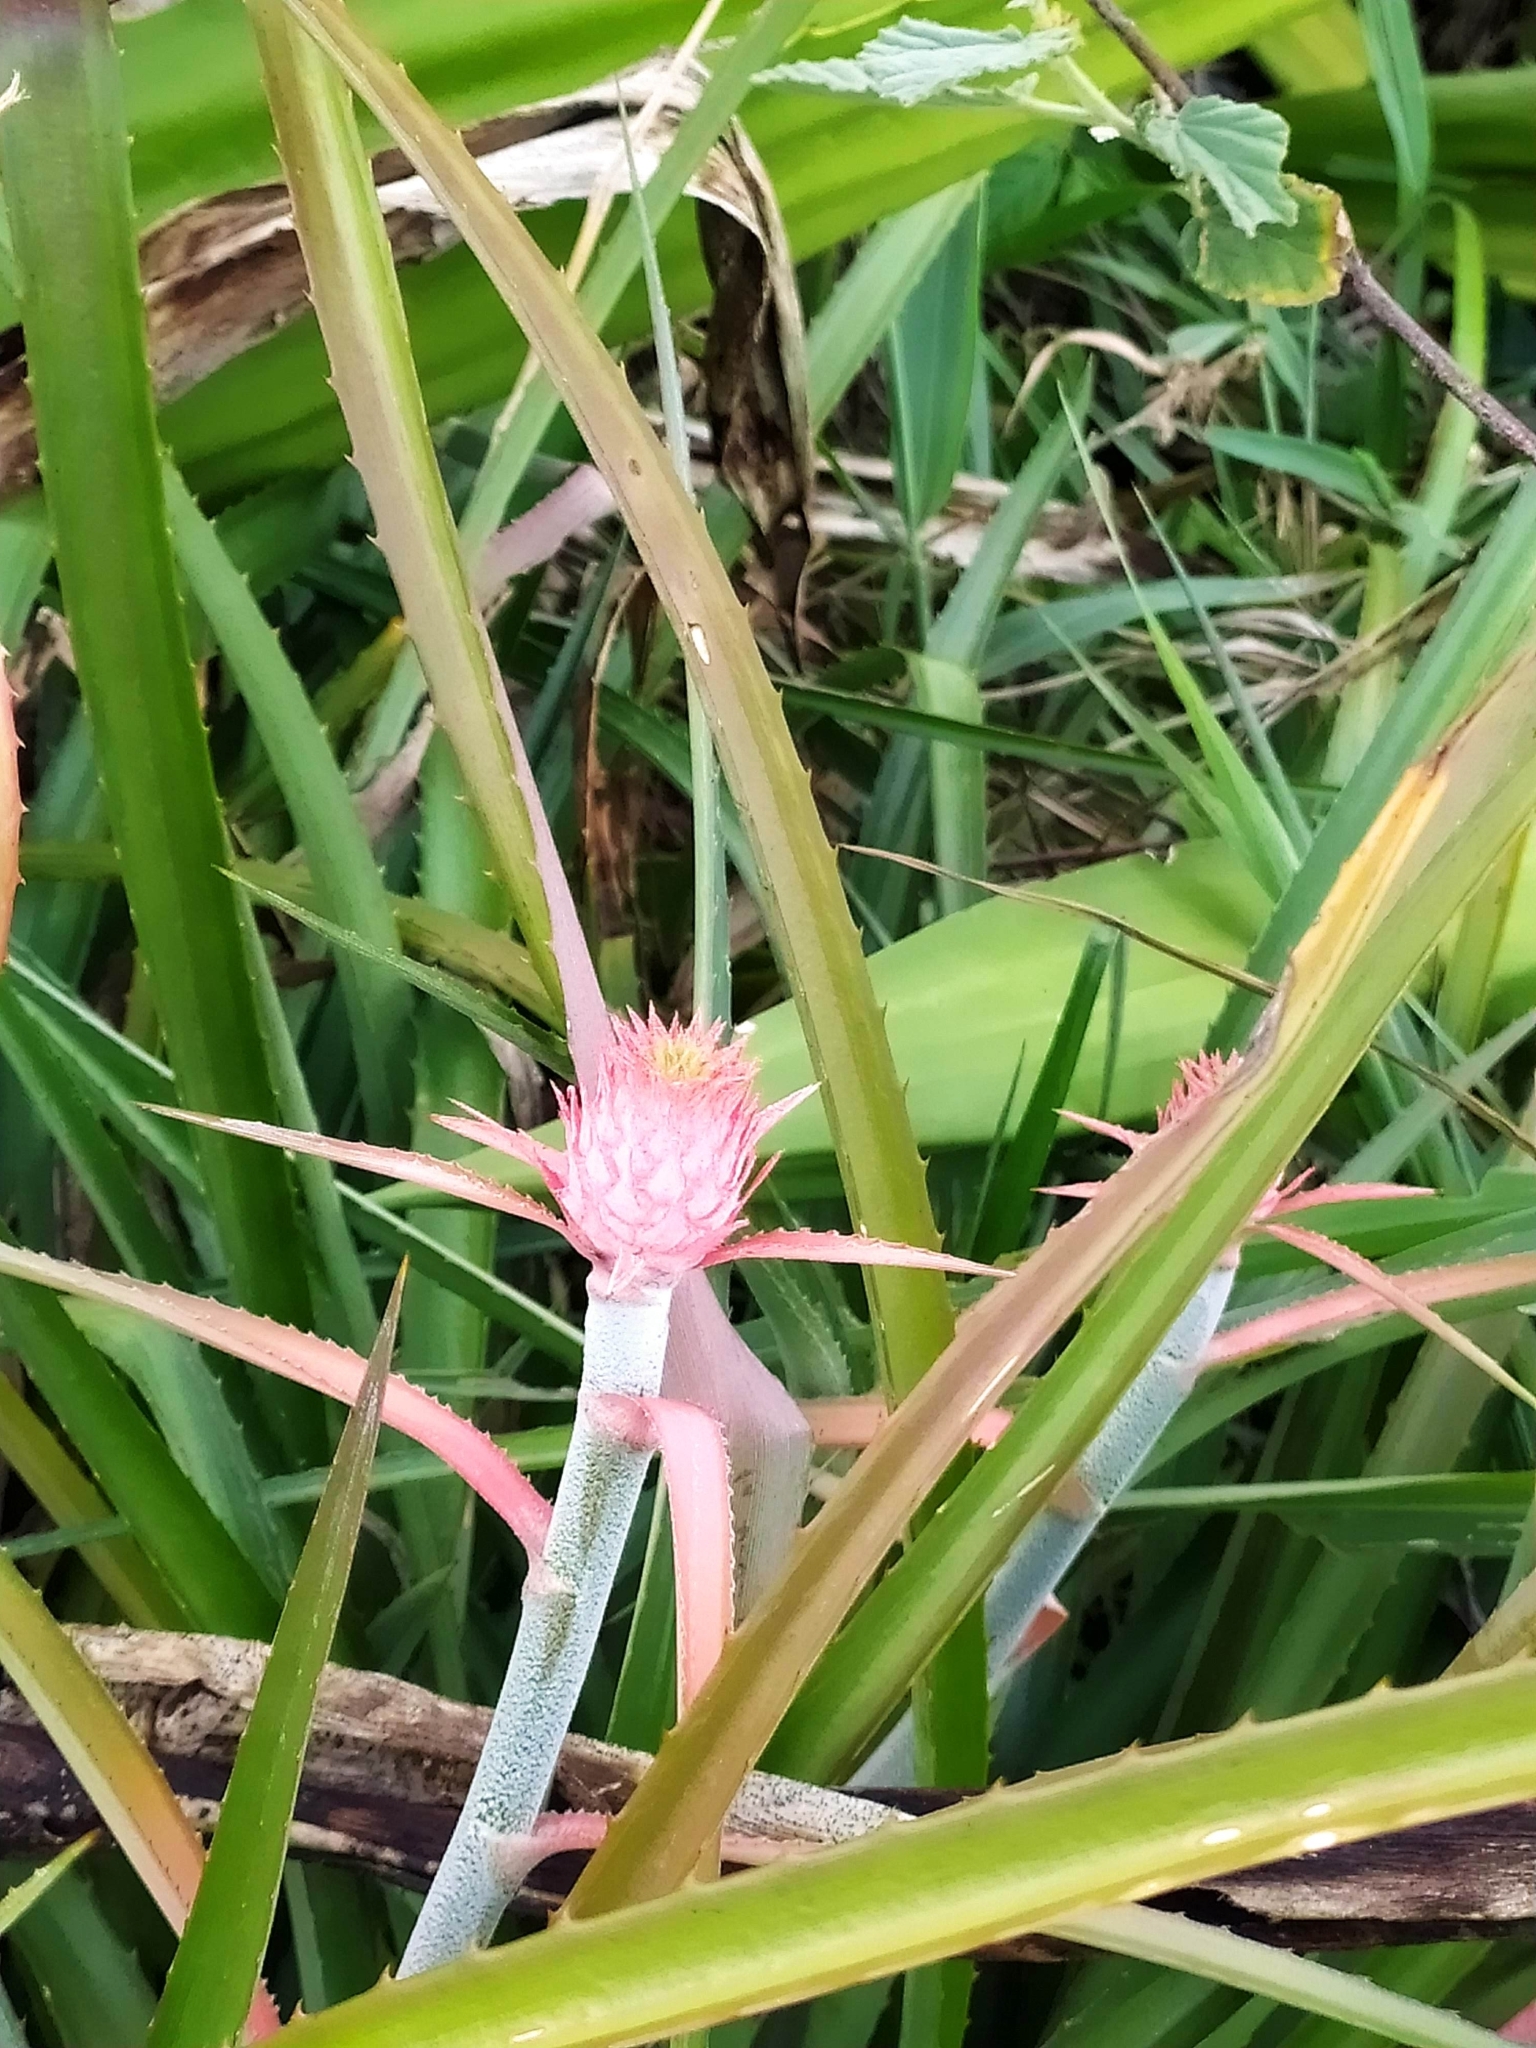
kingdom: Plantae
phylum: Tracheophyta
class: Liliopsida
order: Poales
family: Bromeliaceae
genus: Ananas
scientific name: Ananas comosus
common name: Pineapple
